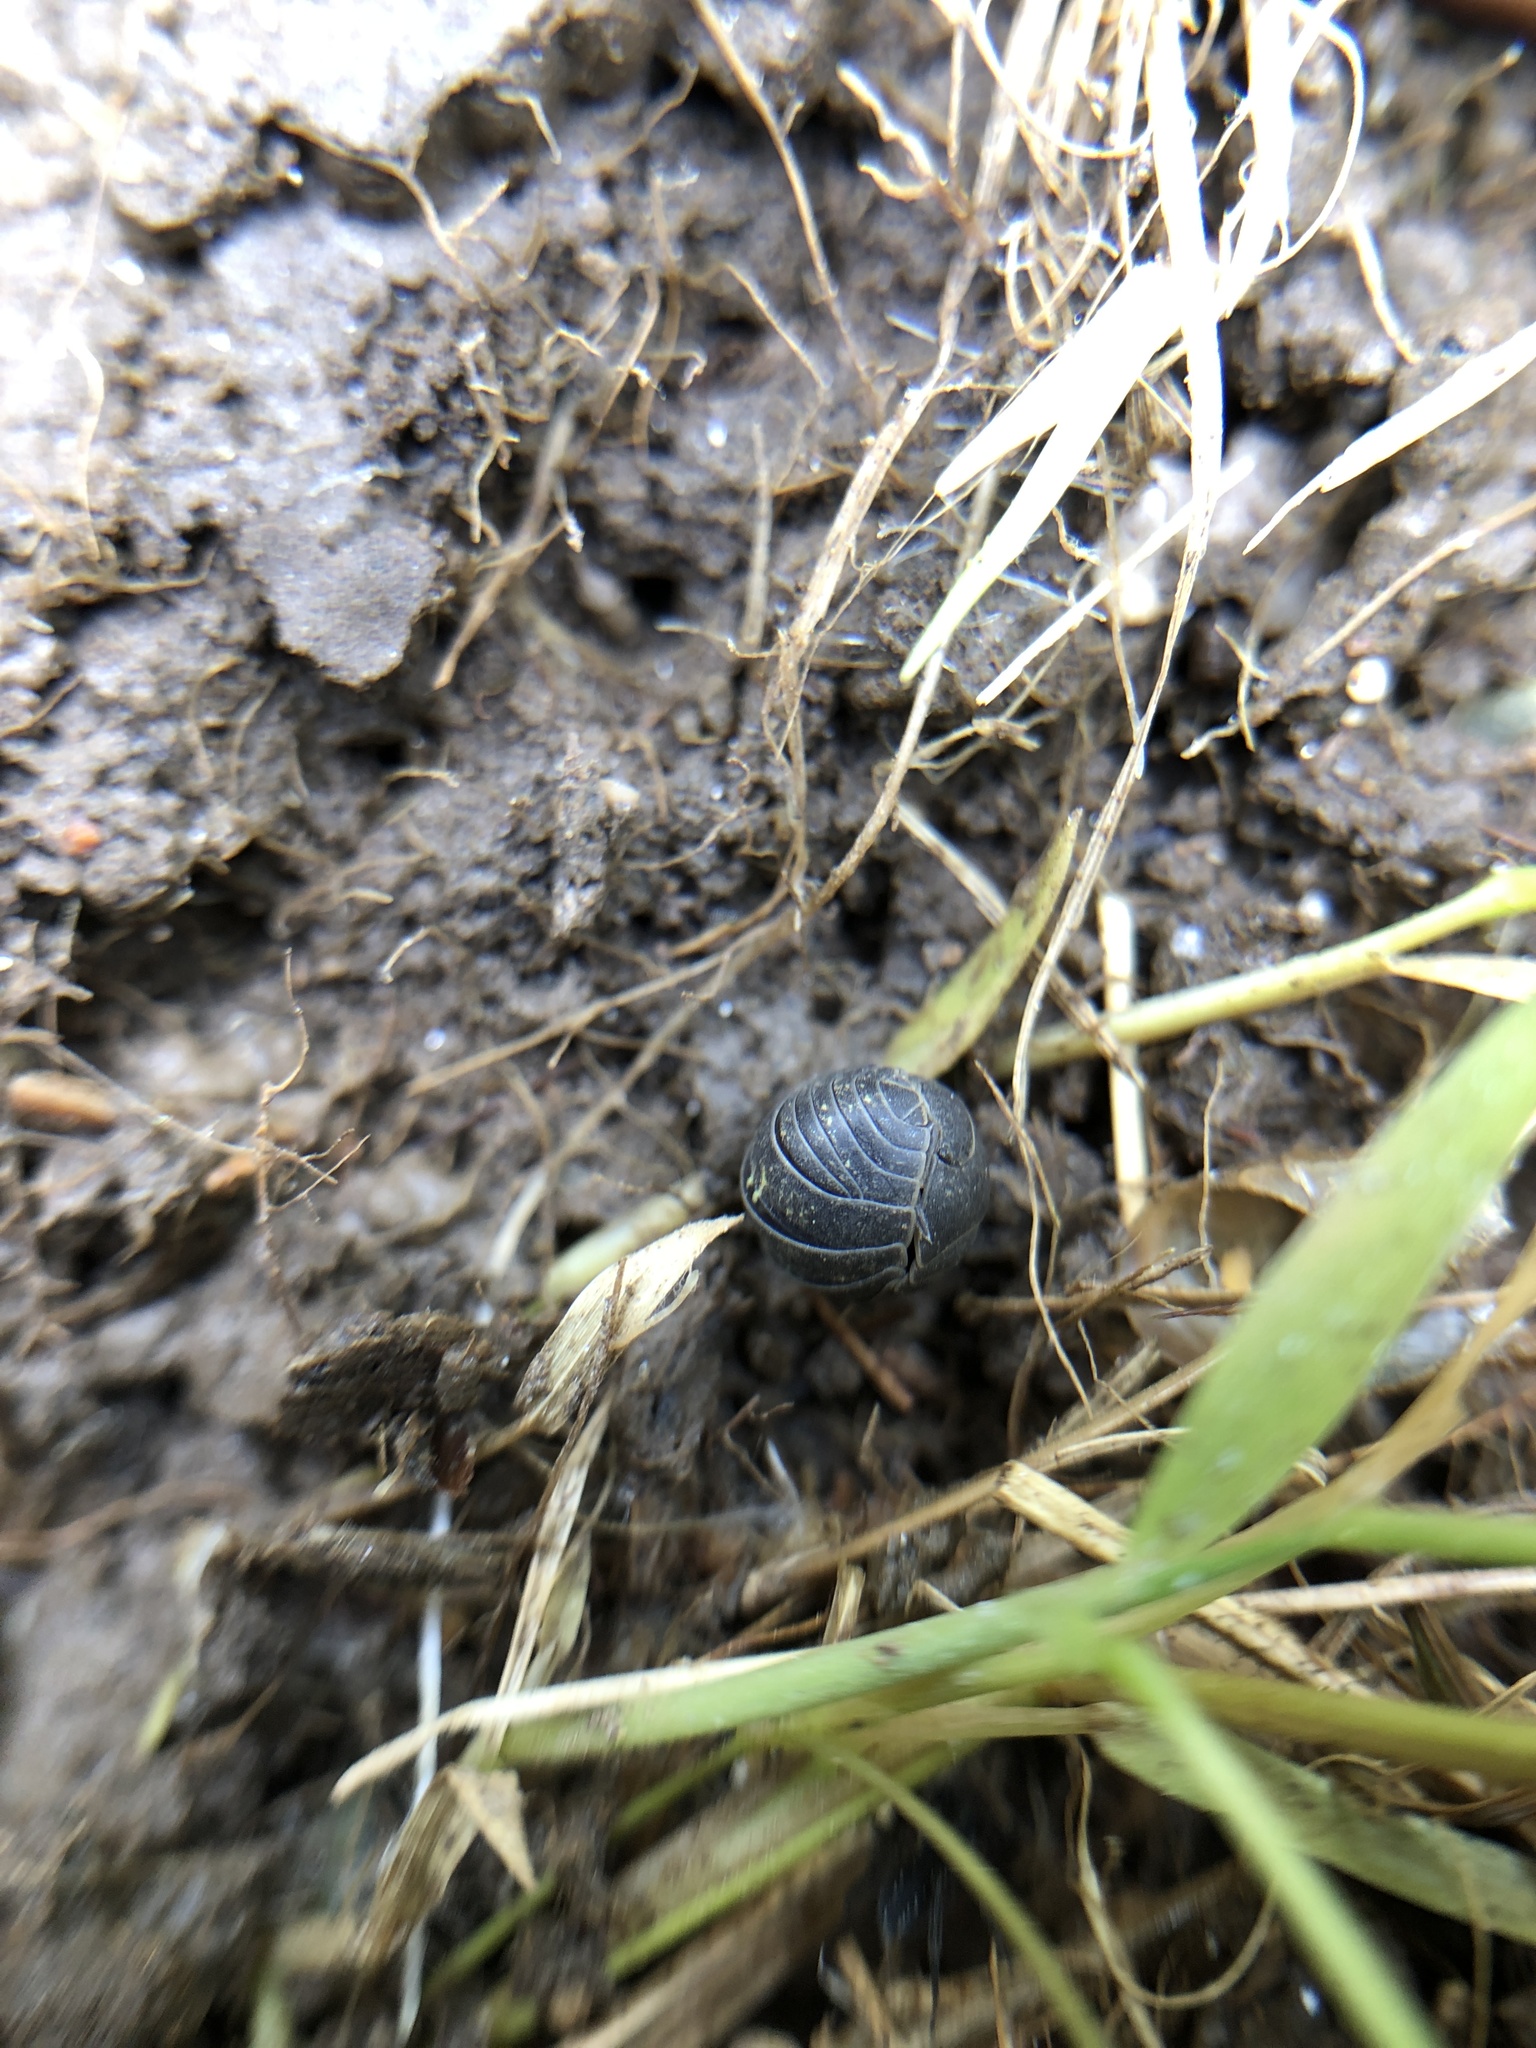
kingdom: Animalia
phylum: Arthropoda
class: Malacostraca
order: Isopoda
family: Armadillidiidae
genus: Armadillidium
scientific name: Armadillidium vulgare
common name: Common pill woodlouse
